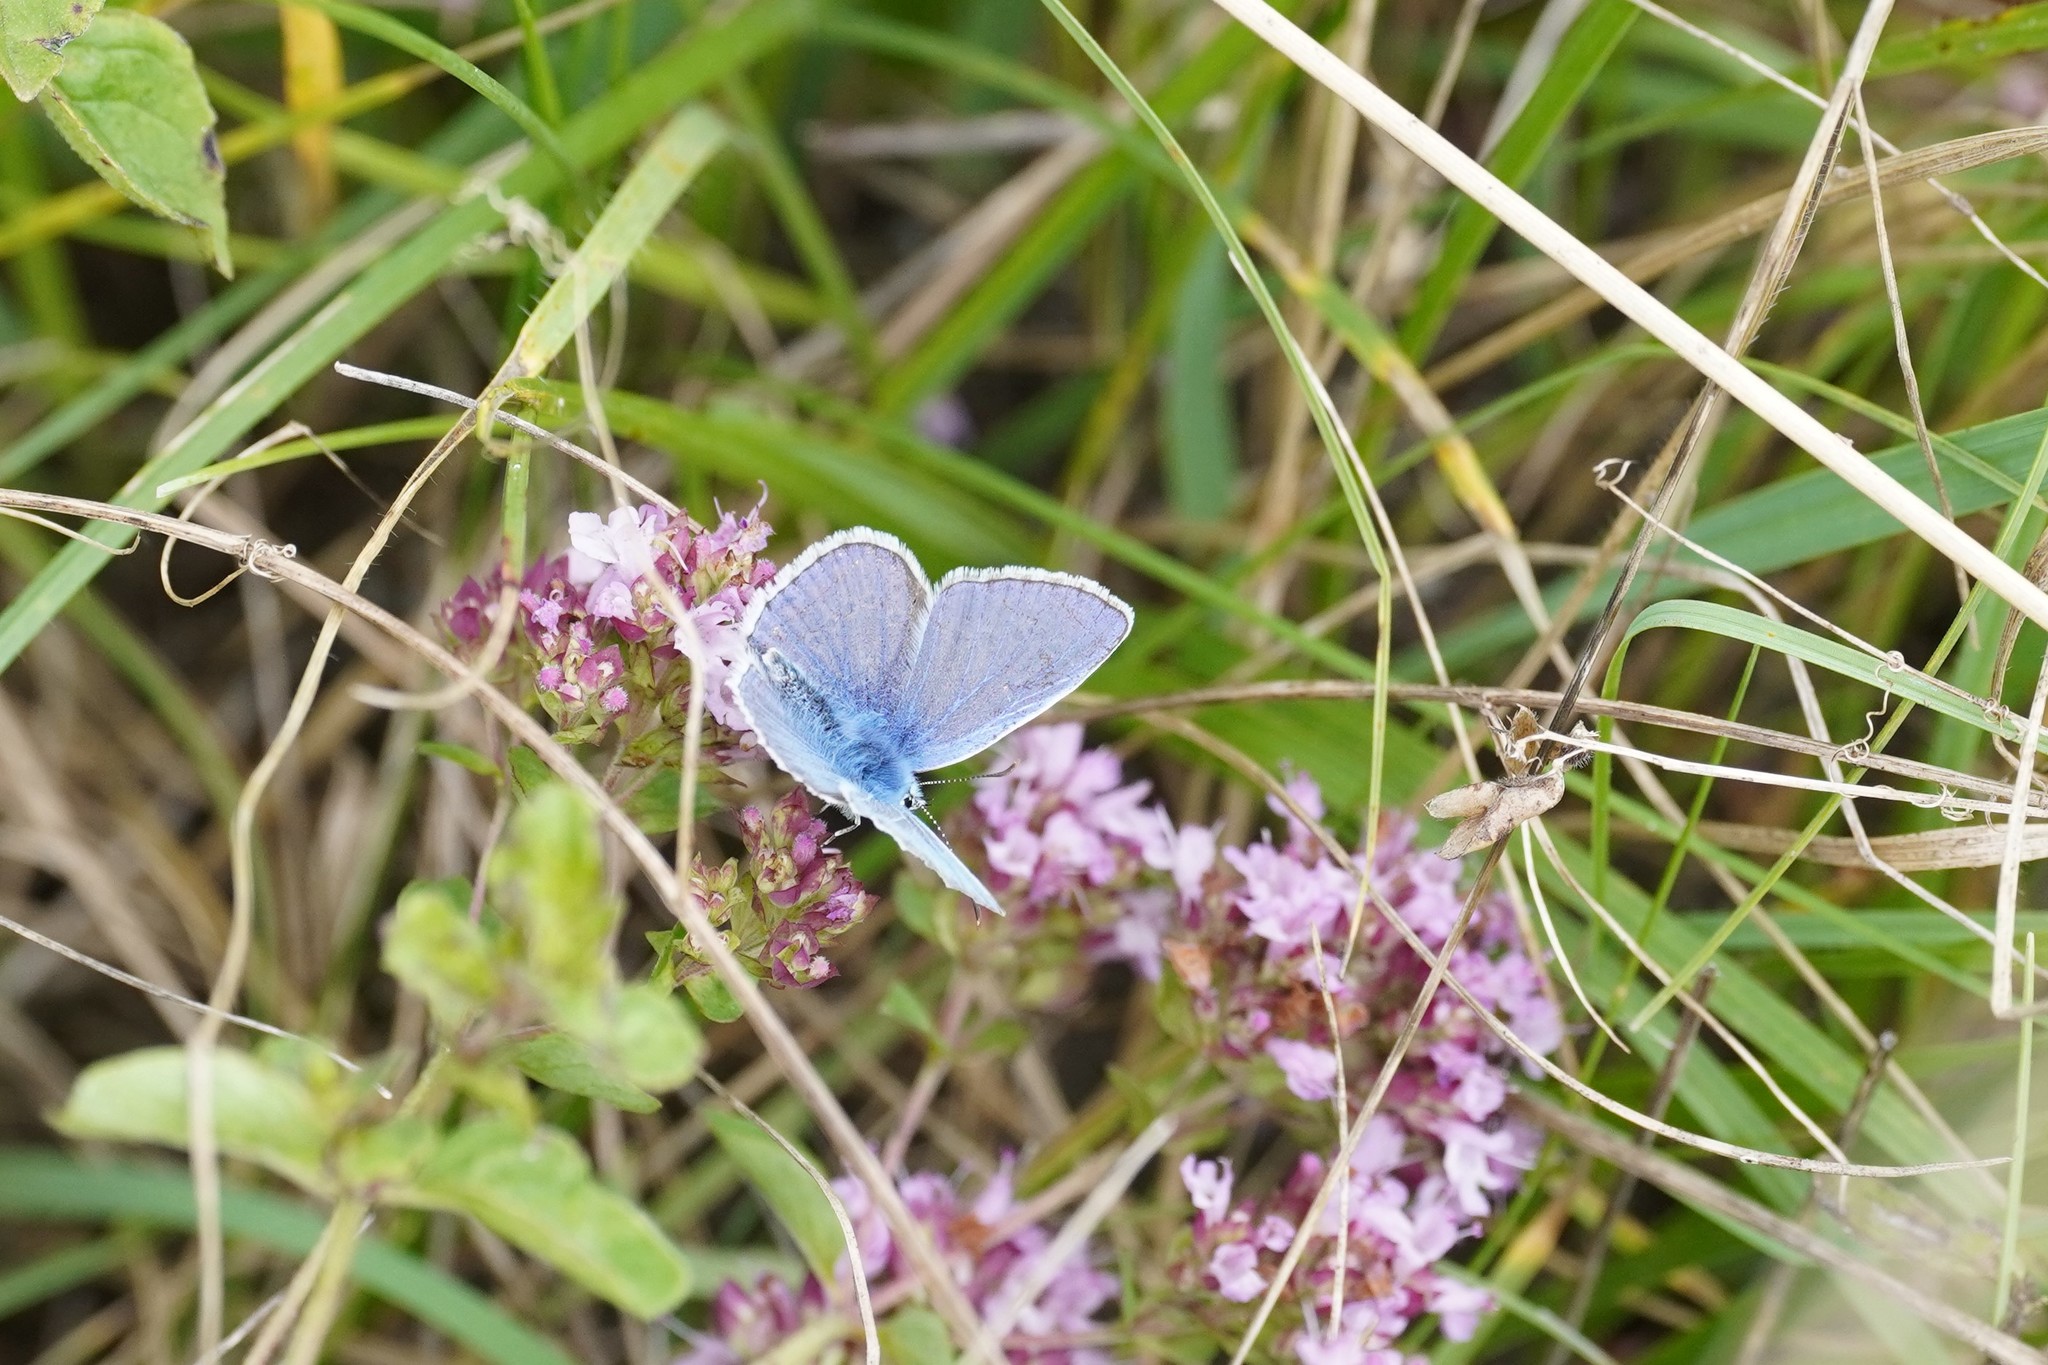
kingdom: Animalia
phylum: Arthropoda
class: Insecta
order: Lepidoptera
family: Lycaenidae
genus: Polyommatus
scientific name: Polyommatus icarus
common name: Common blue
